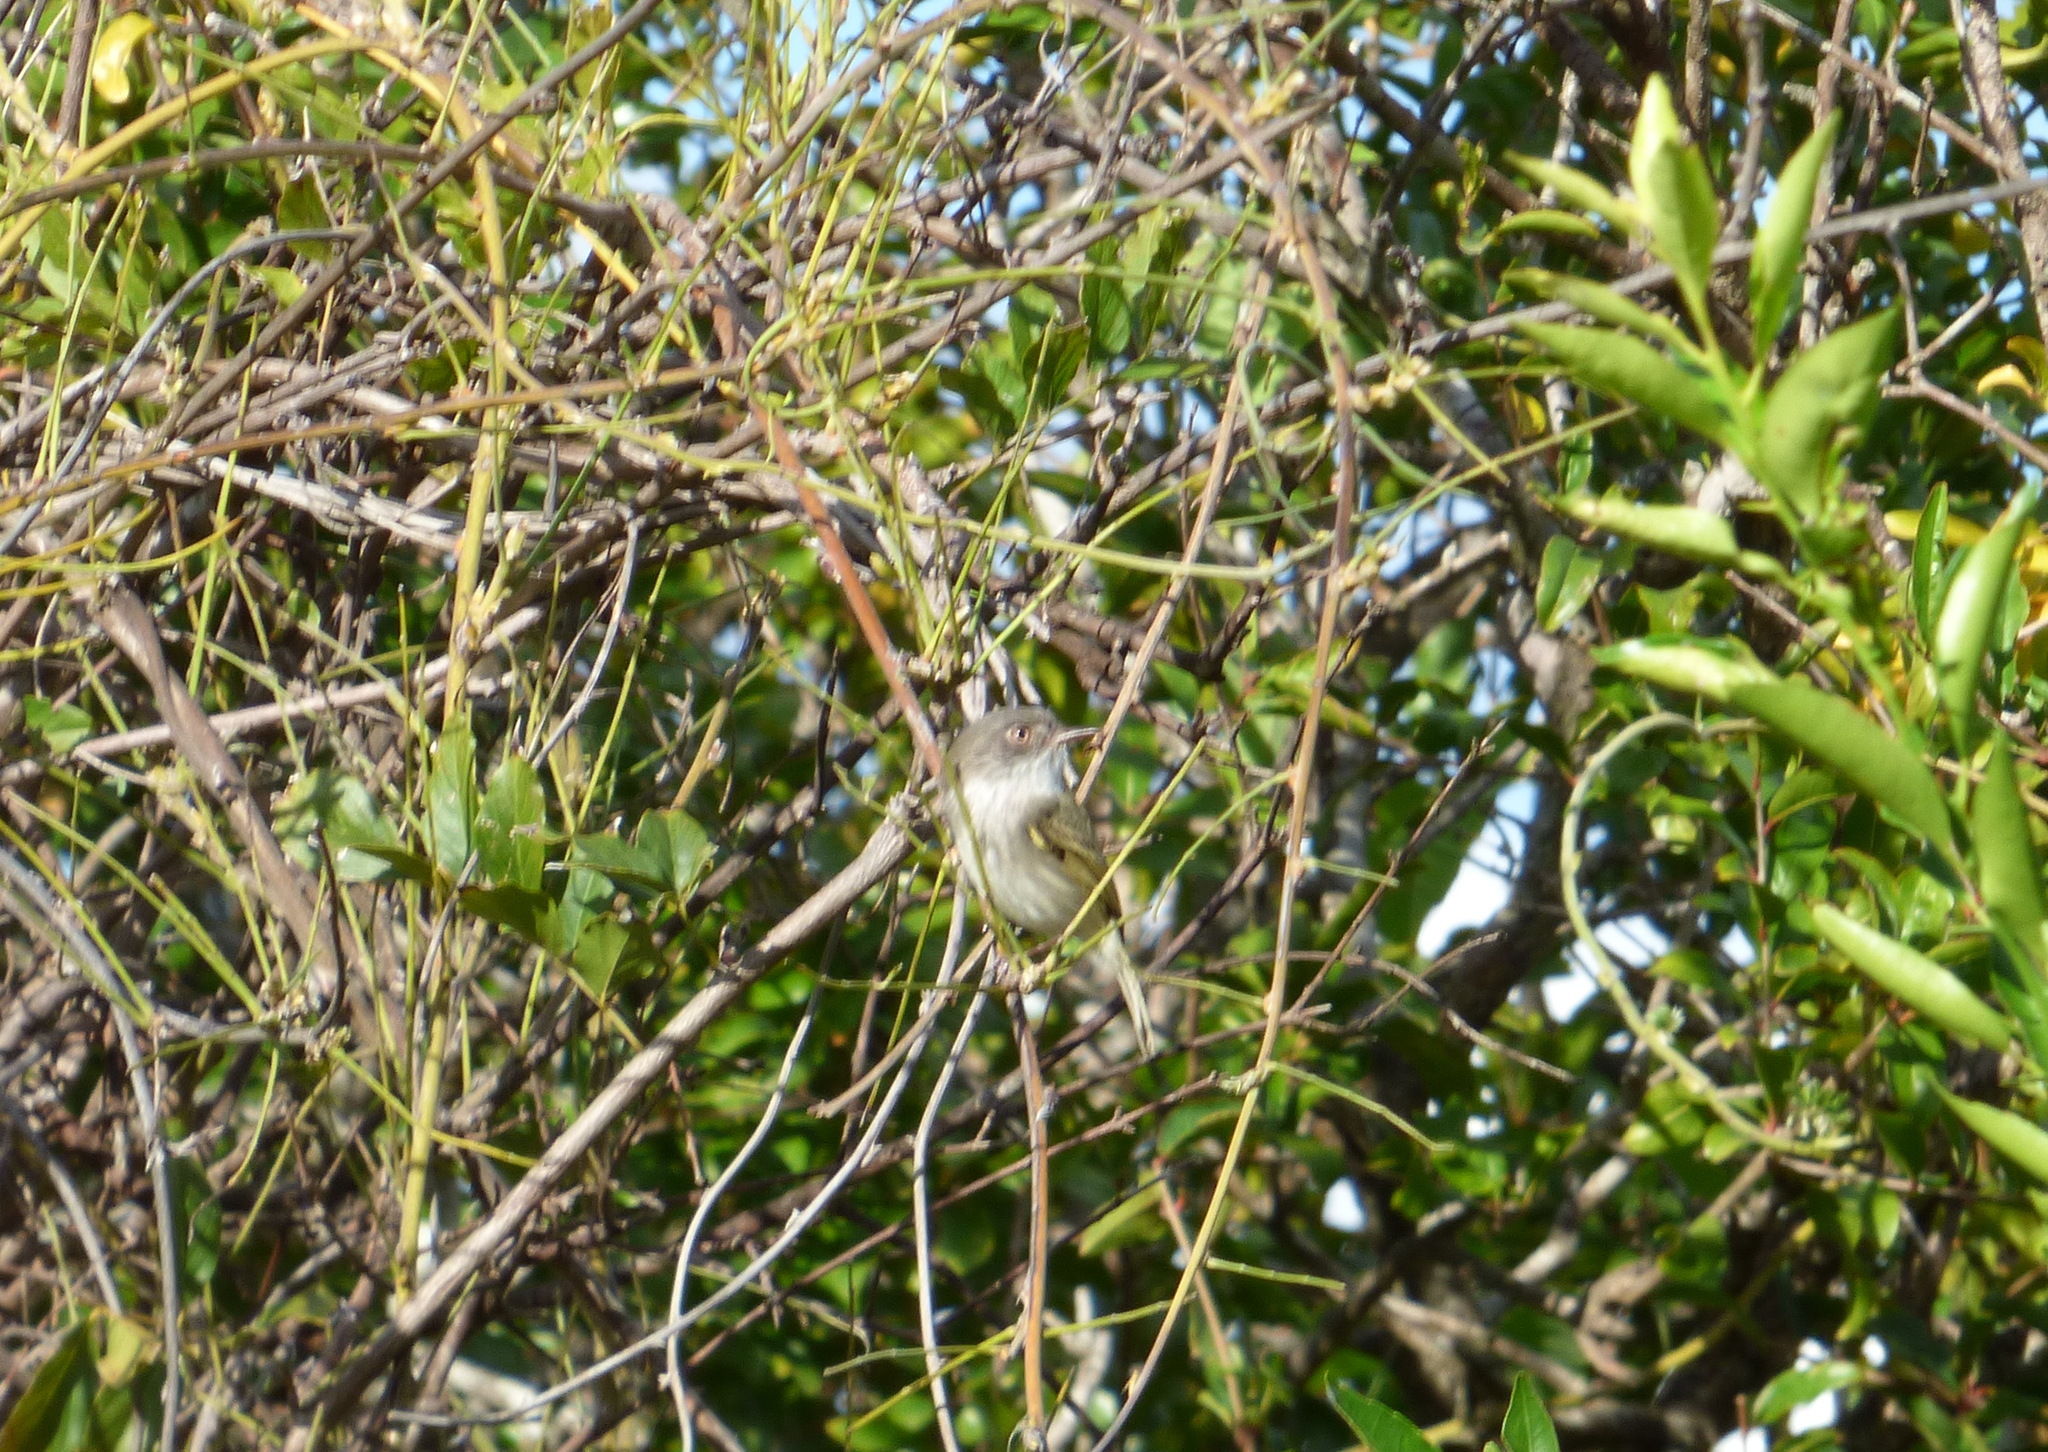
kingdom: Animalia
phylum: Chordata
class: Aves
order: Passeriformes
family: Tyrannidae
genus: Hemitriccus
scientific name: Hemitriccus margaritaceiventer
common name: Pearly-vented tody-tyrant
